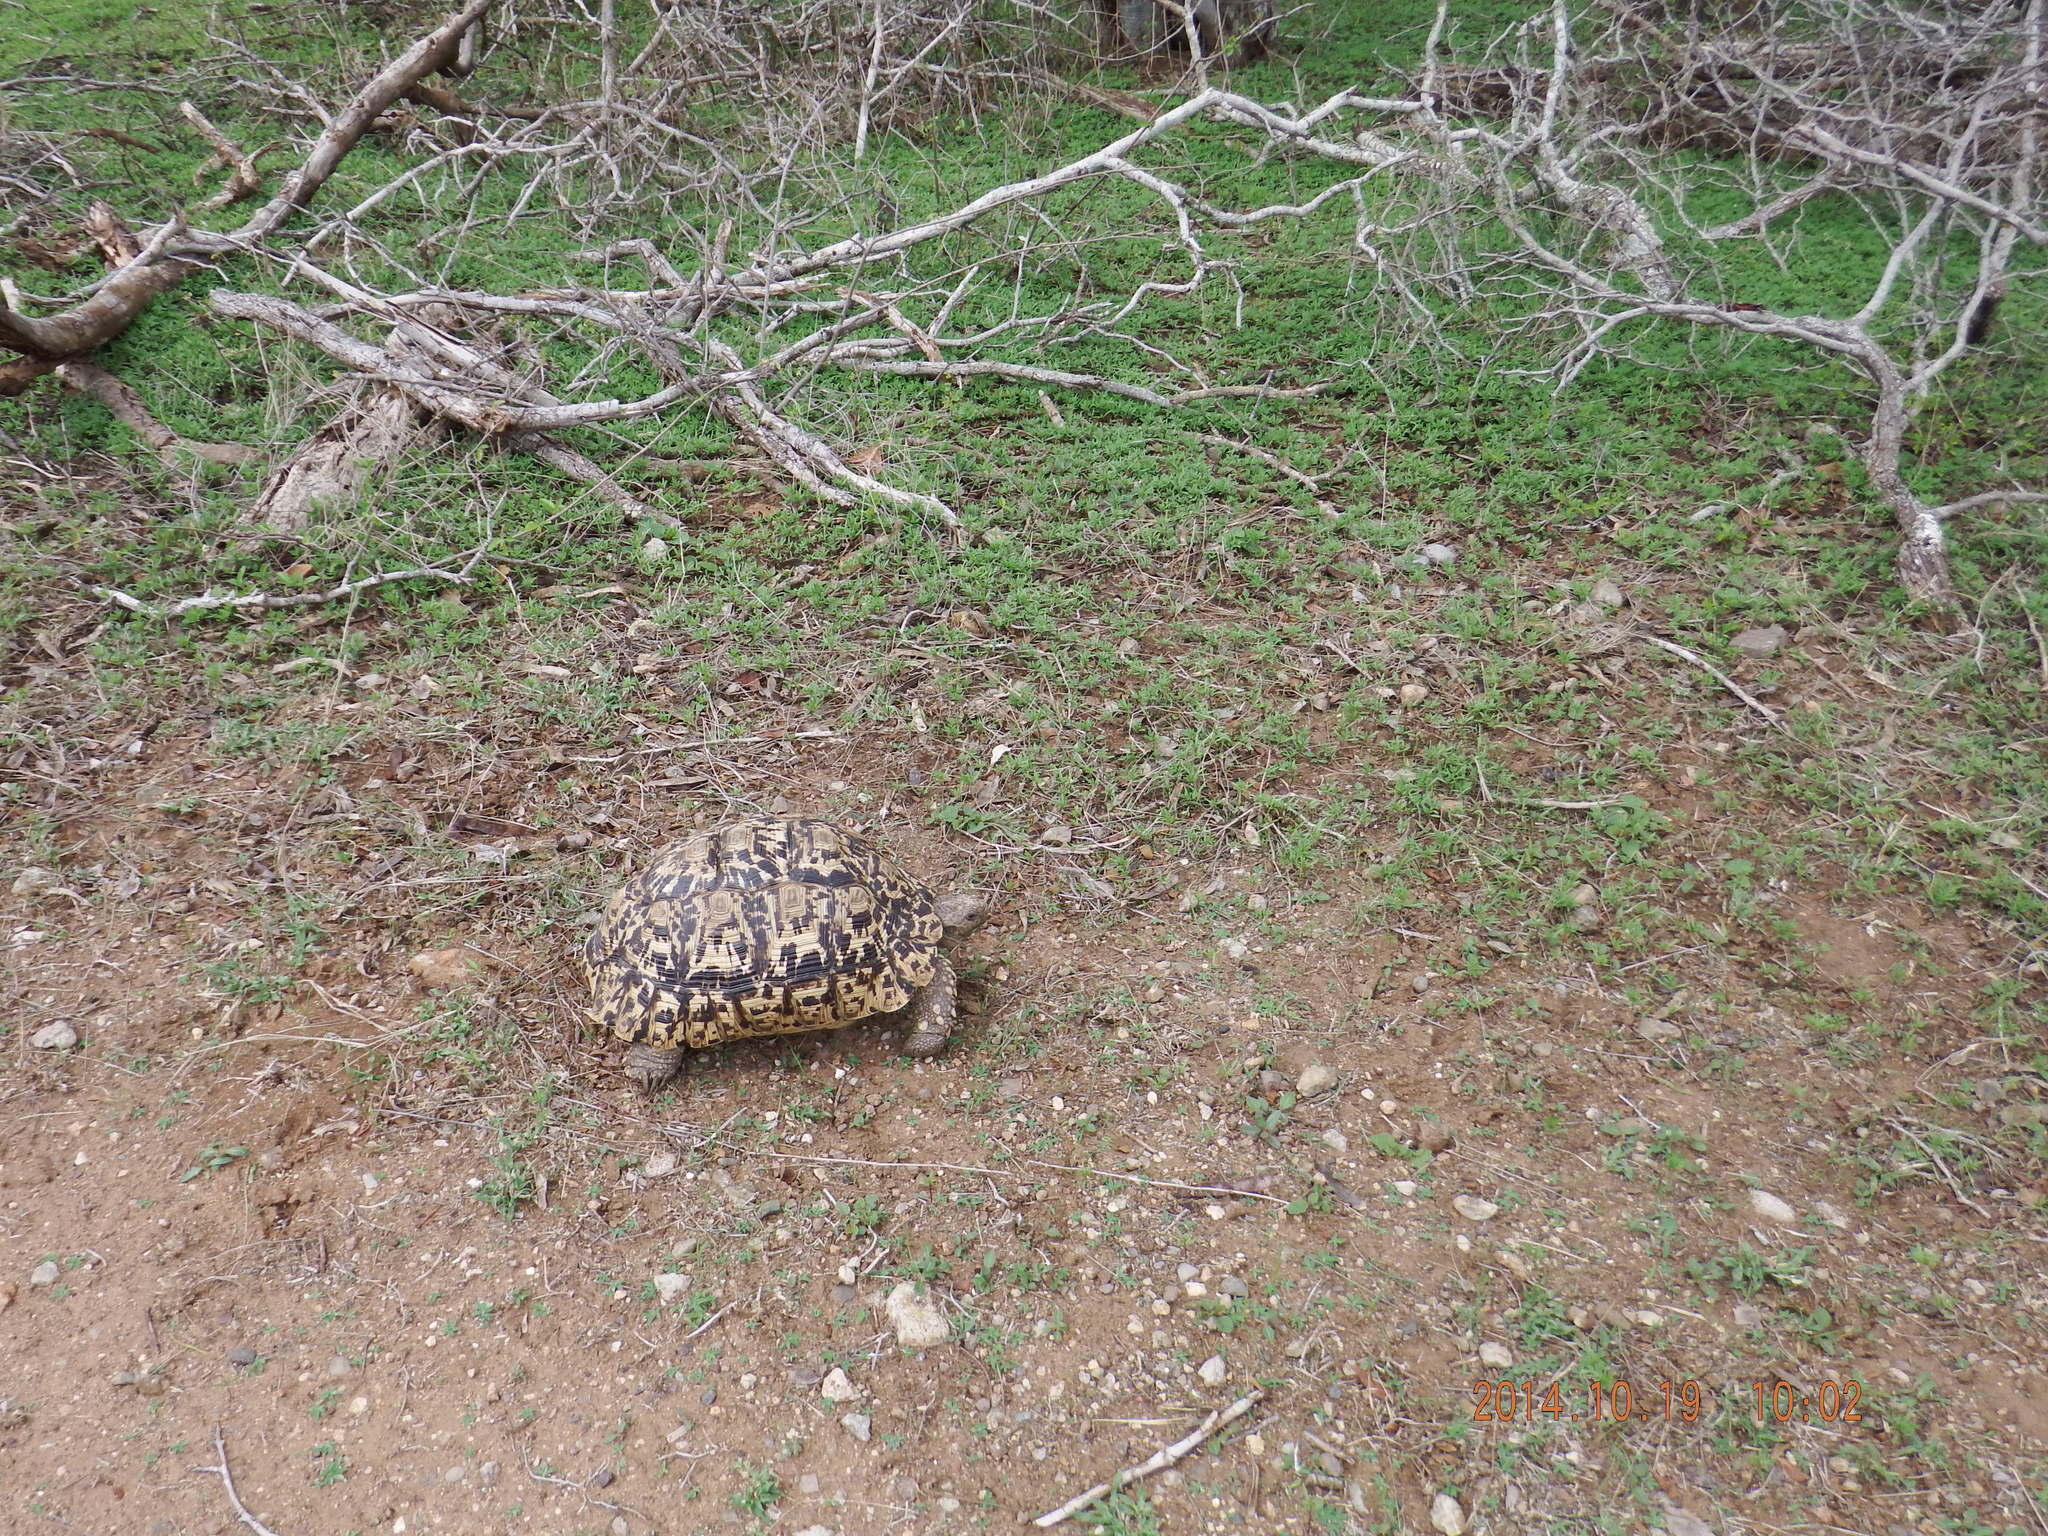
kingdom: Animalia
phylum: Chordata
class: Testudines
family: Testudinidae
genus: Stigmochelys
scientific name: Stigmochelys pardalis
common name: Leopard tortoise
